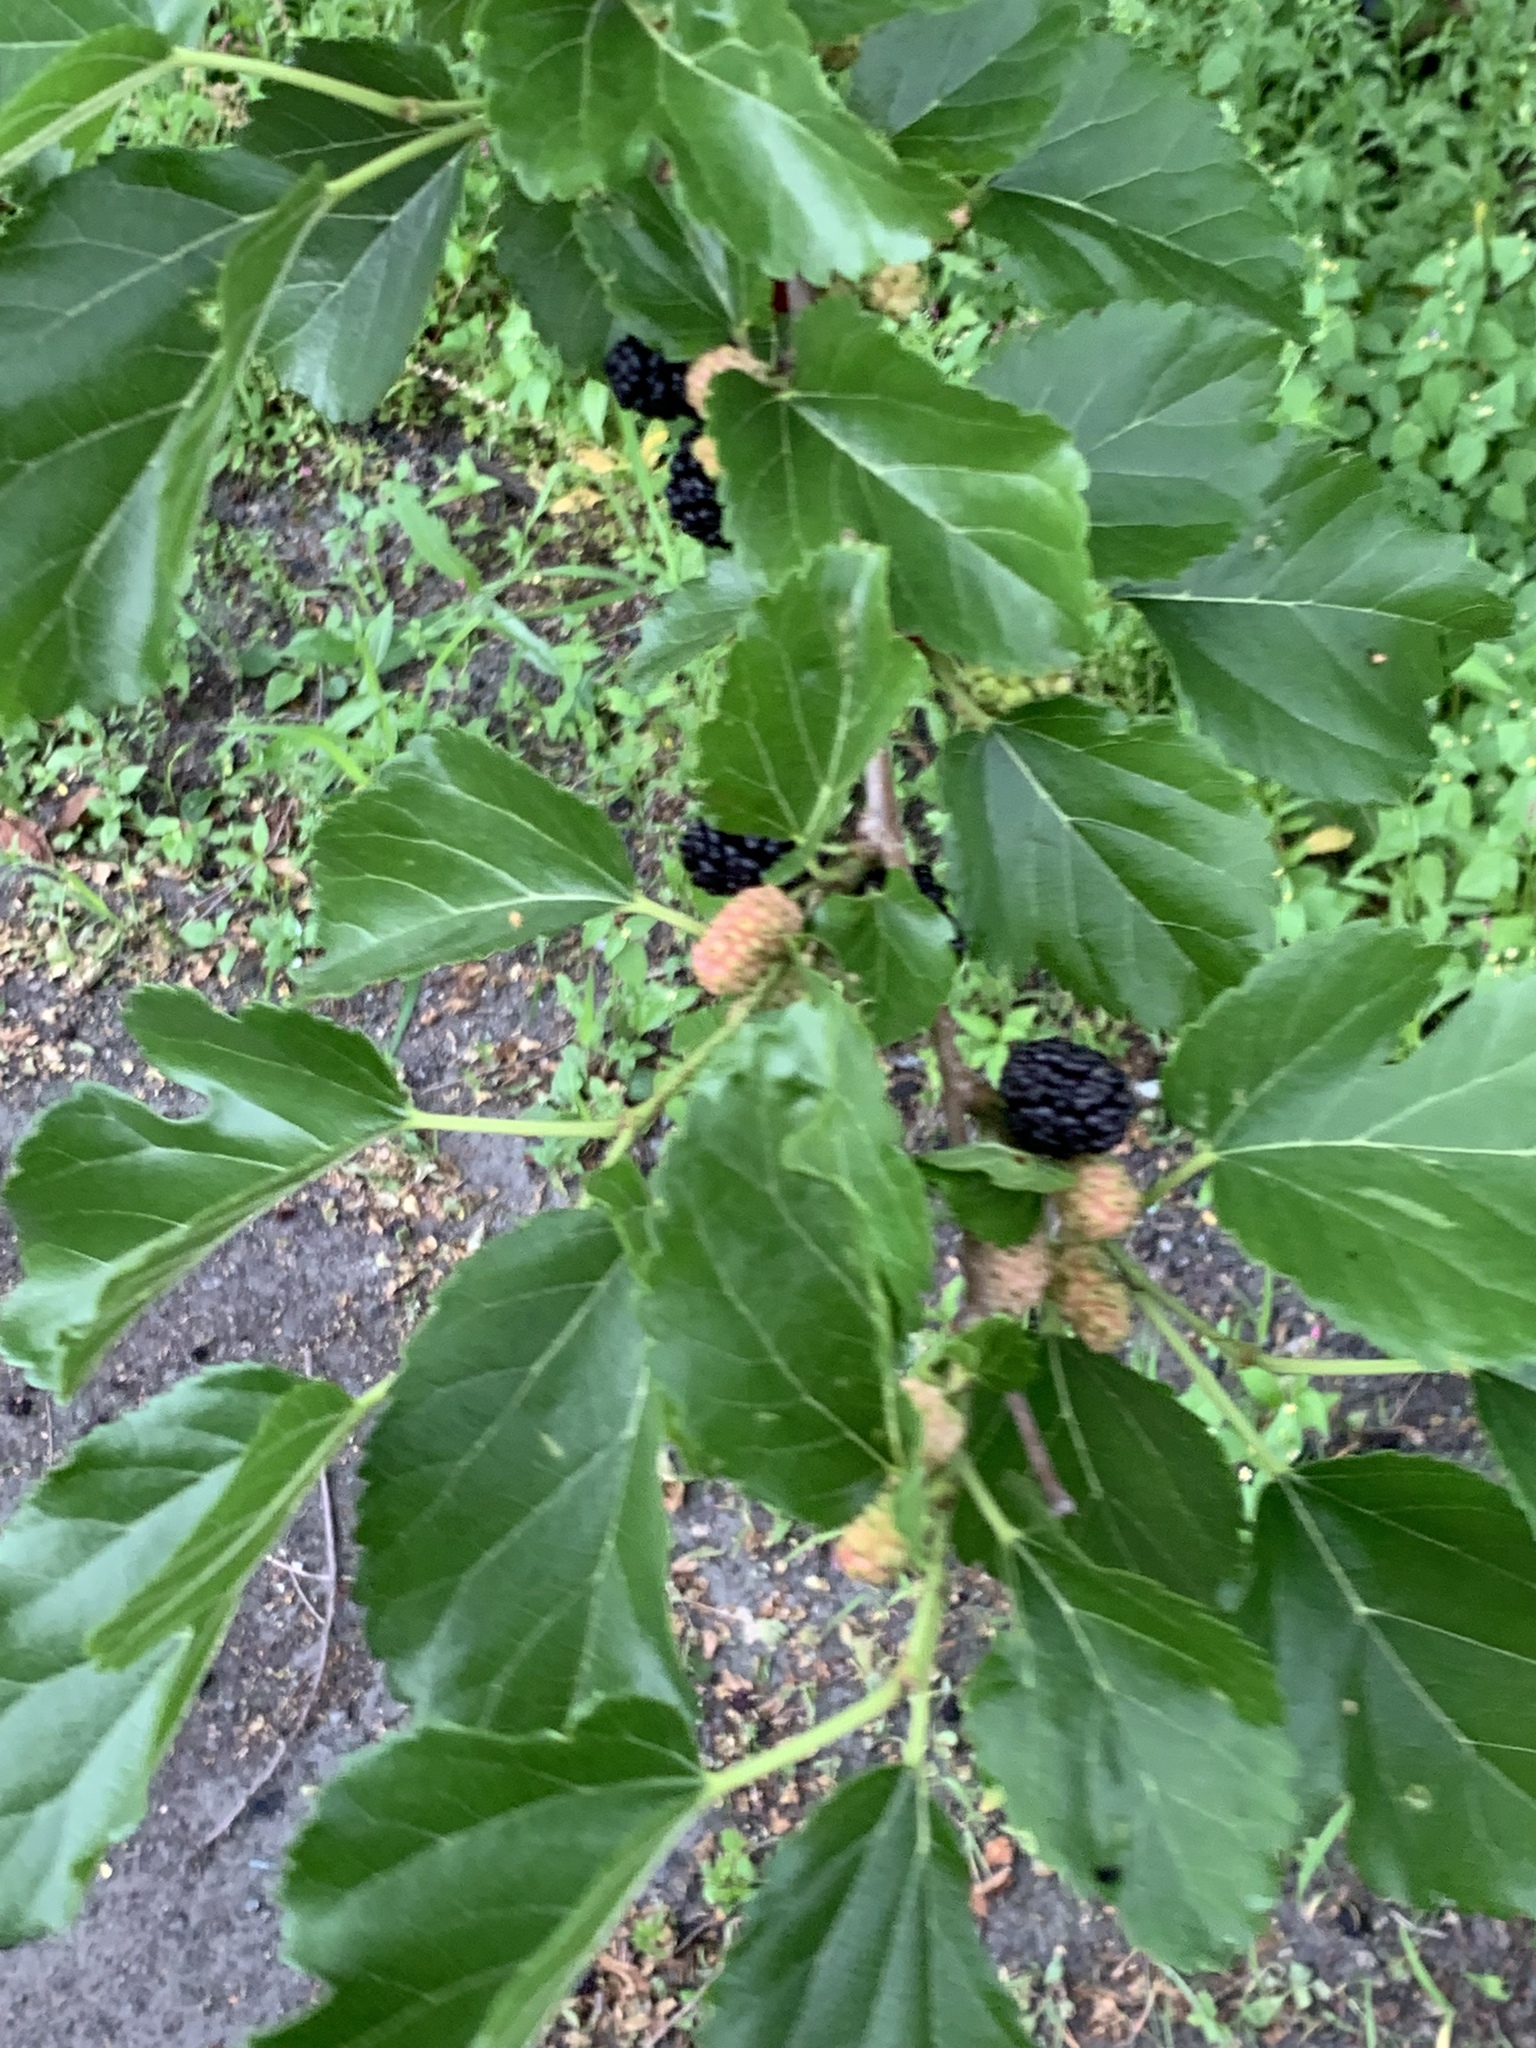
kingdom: Plantae
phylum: Tracheophyta
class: Magnoliopsida
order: Rosales
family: Moraceae
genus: Morus
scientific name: Morus alba
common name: White mulberry
